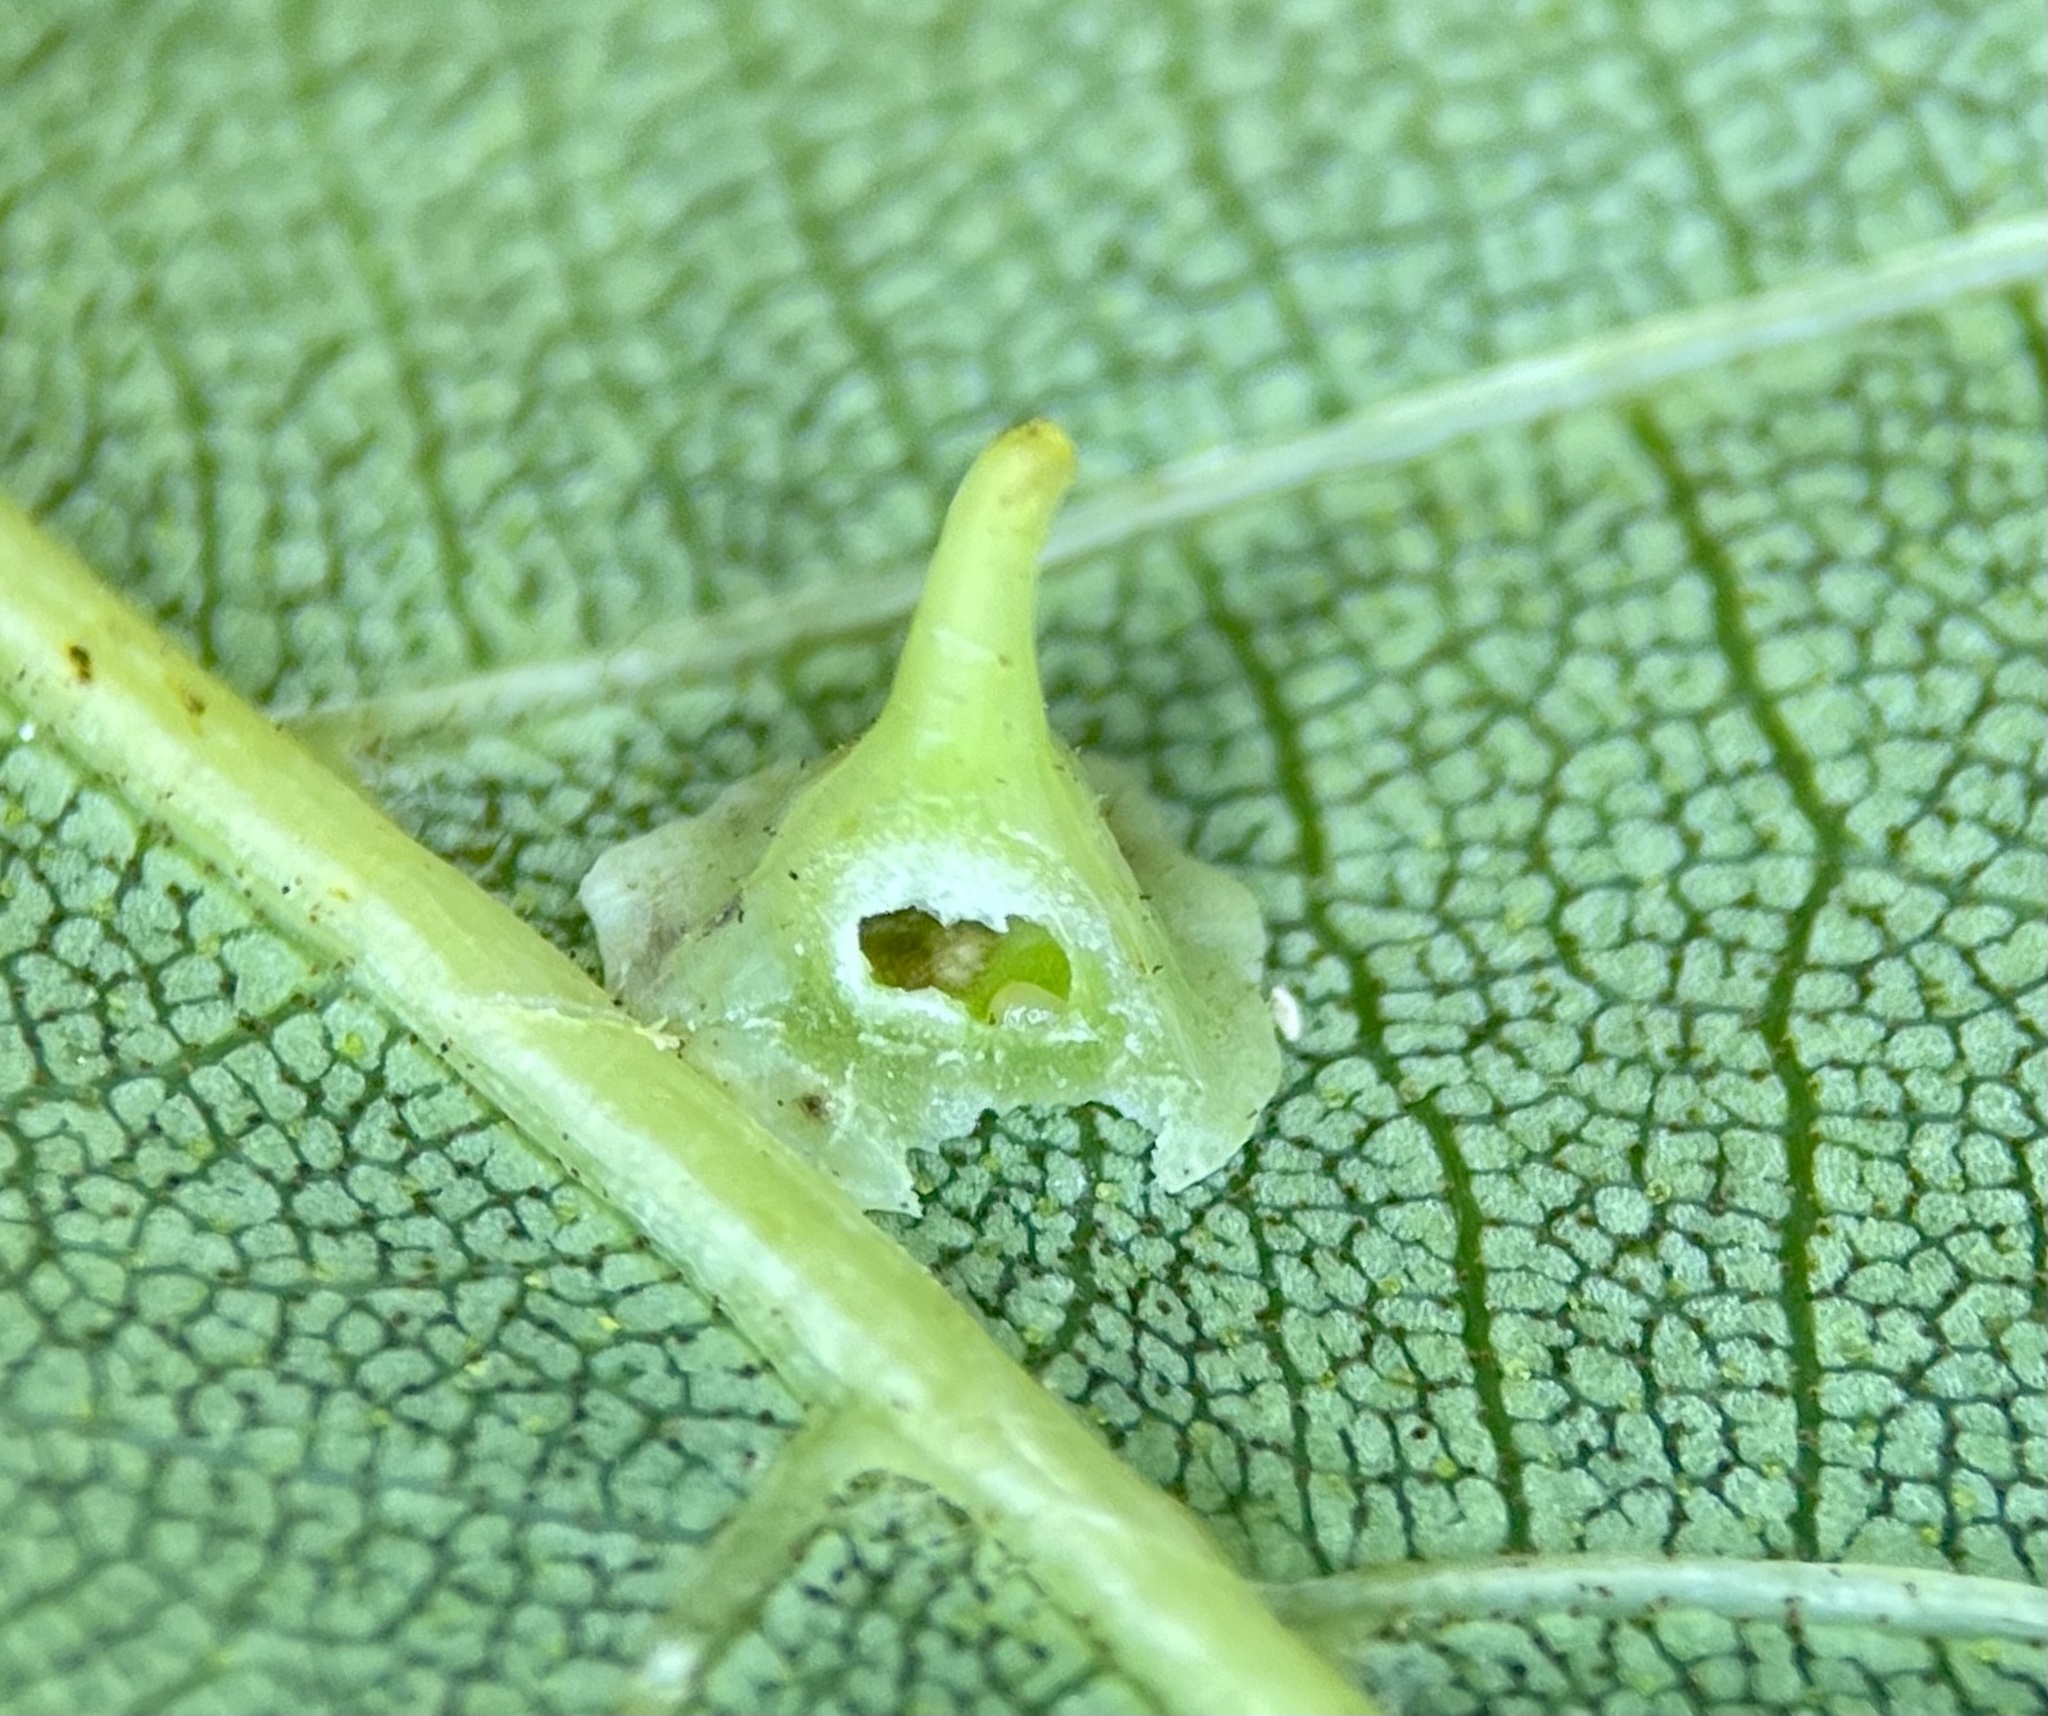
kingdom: Animalia
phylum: Arthropoda
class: Insecta
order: Diptera
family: Cecidomyiidae
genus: Caryomyia
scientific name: Caryomyia stellata
